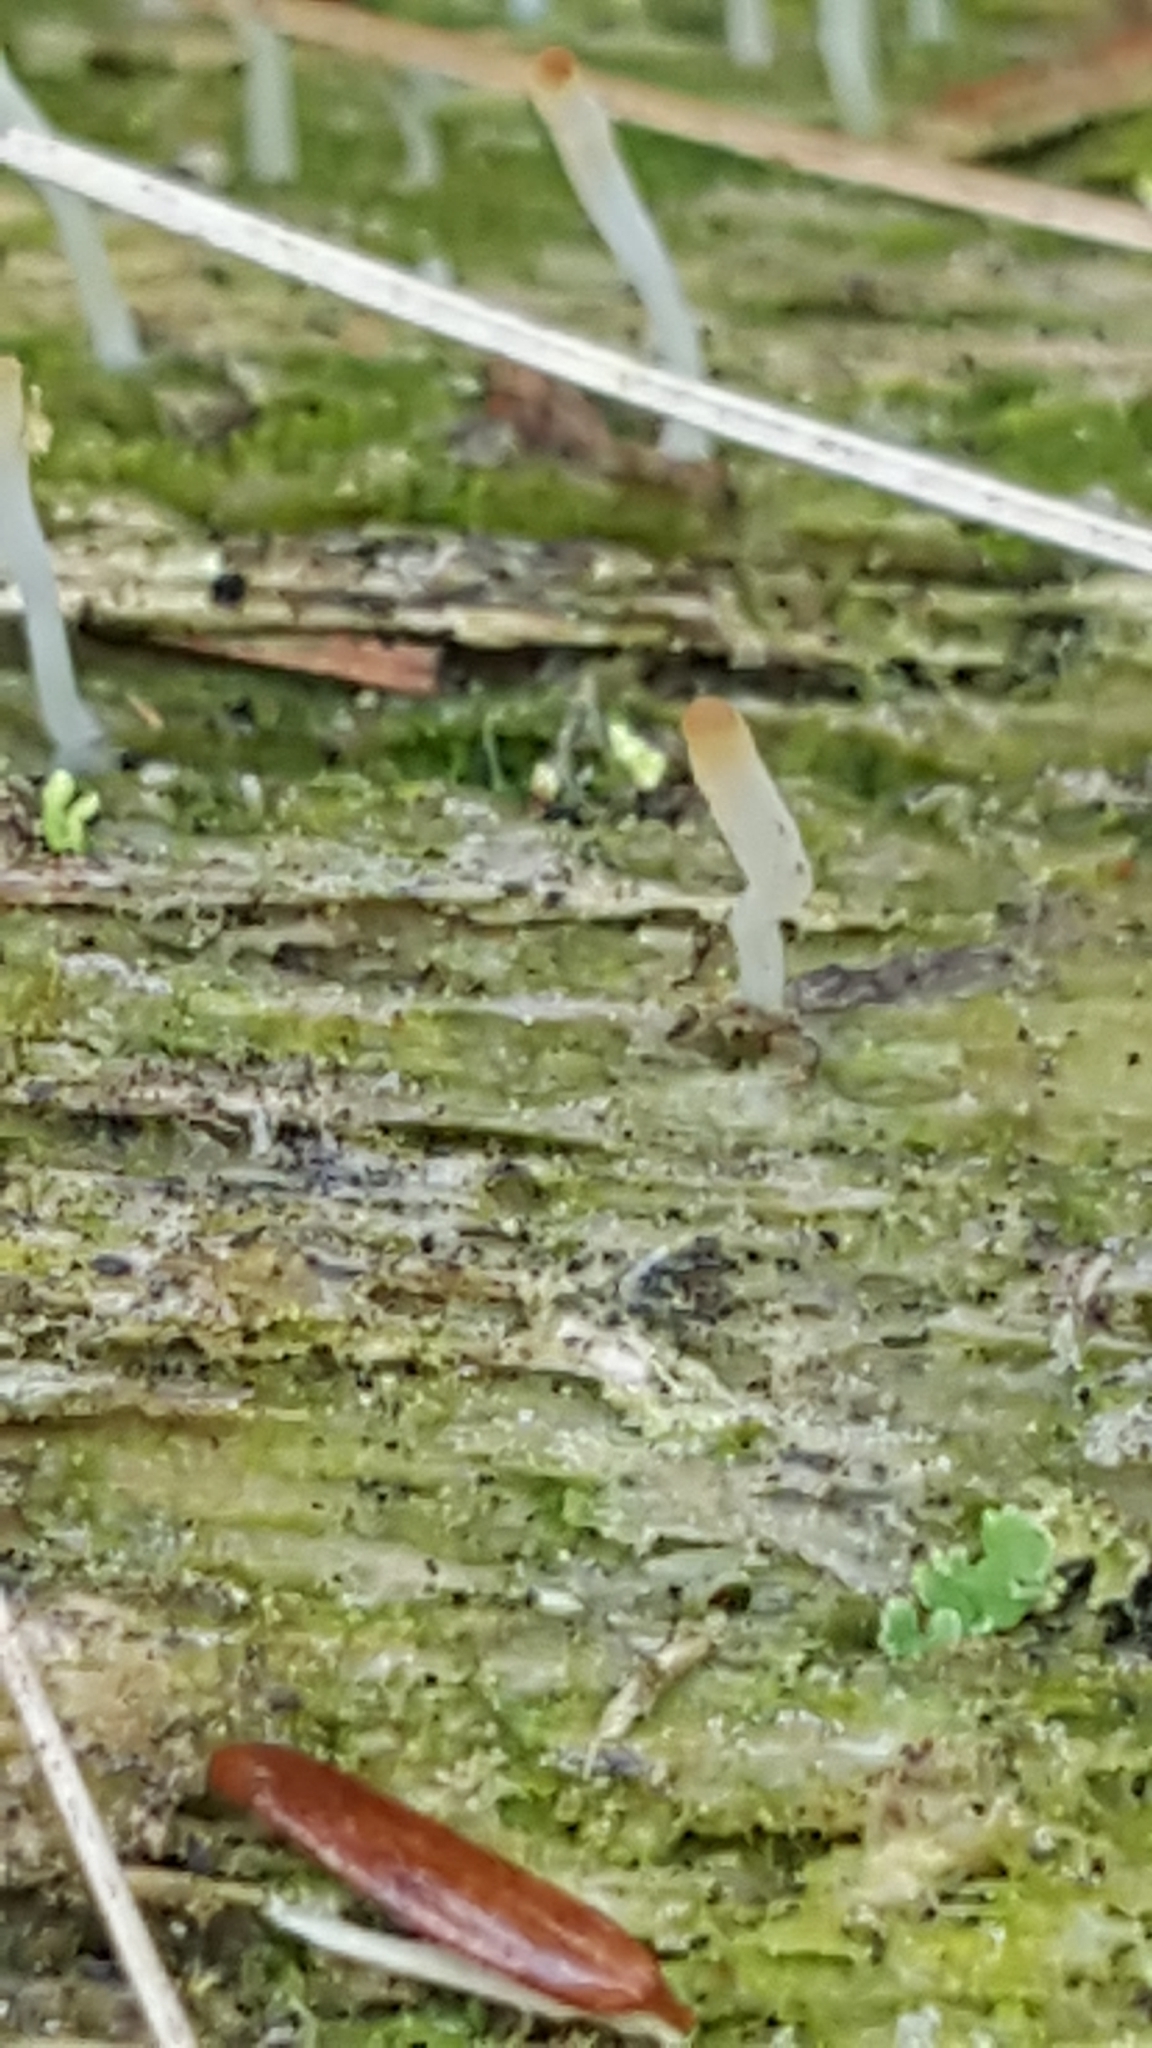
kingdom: Fungi
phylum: Basidiomycota
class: Agaricomycetes
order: Cantharellales
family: Hydnaceae
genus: Multiclavula
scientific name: Multiclavula mucida
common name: White green-algae coral
